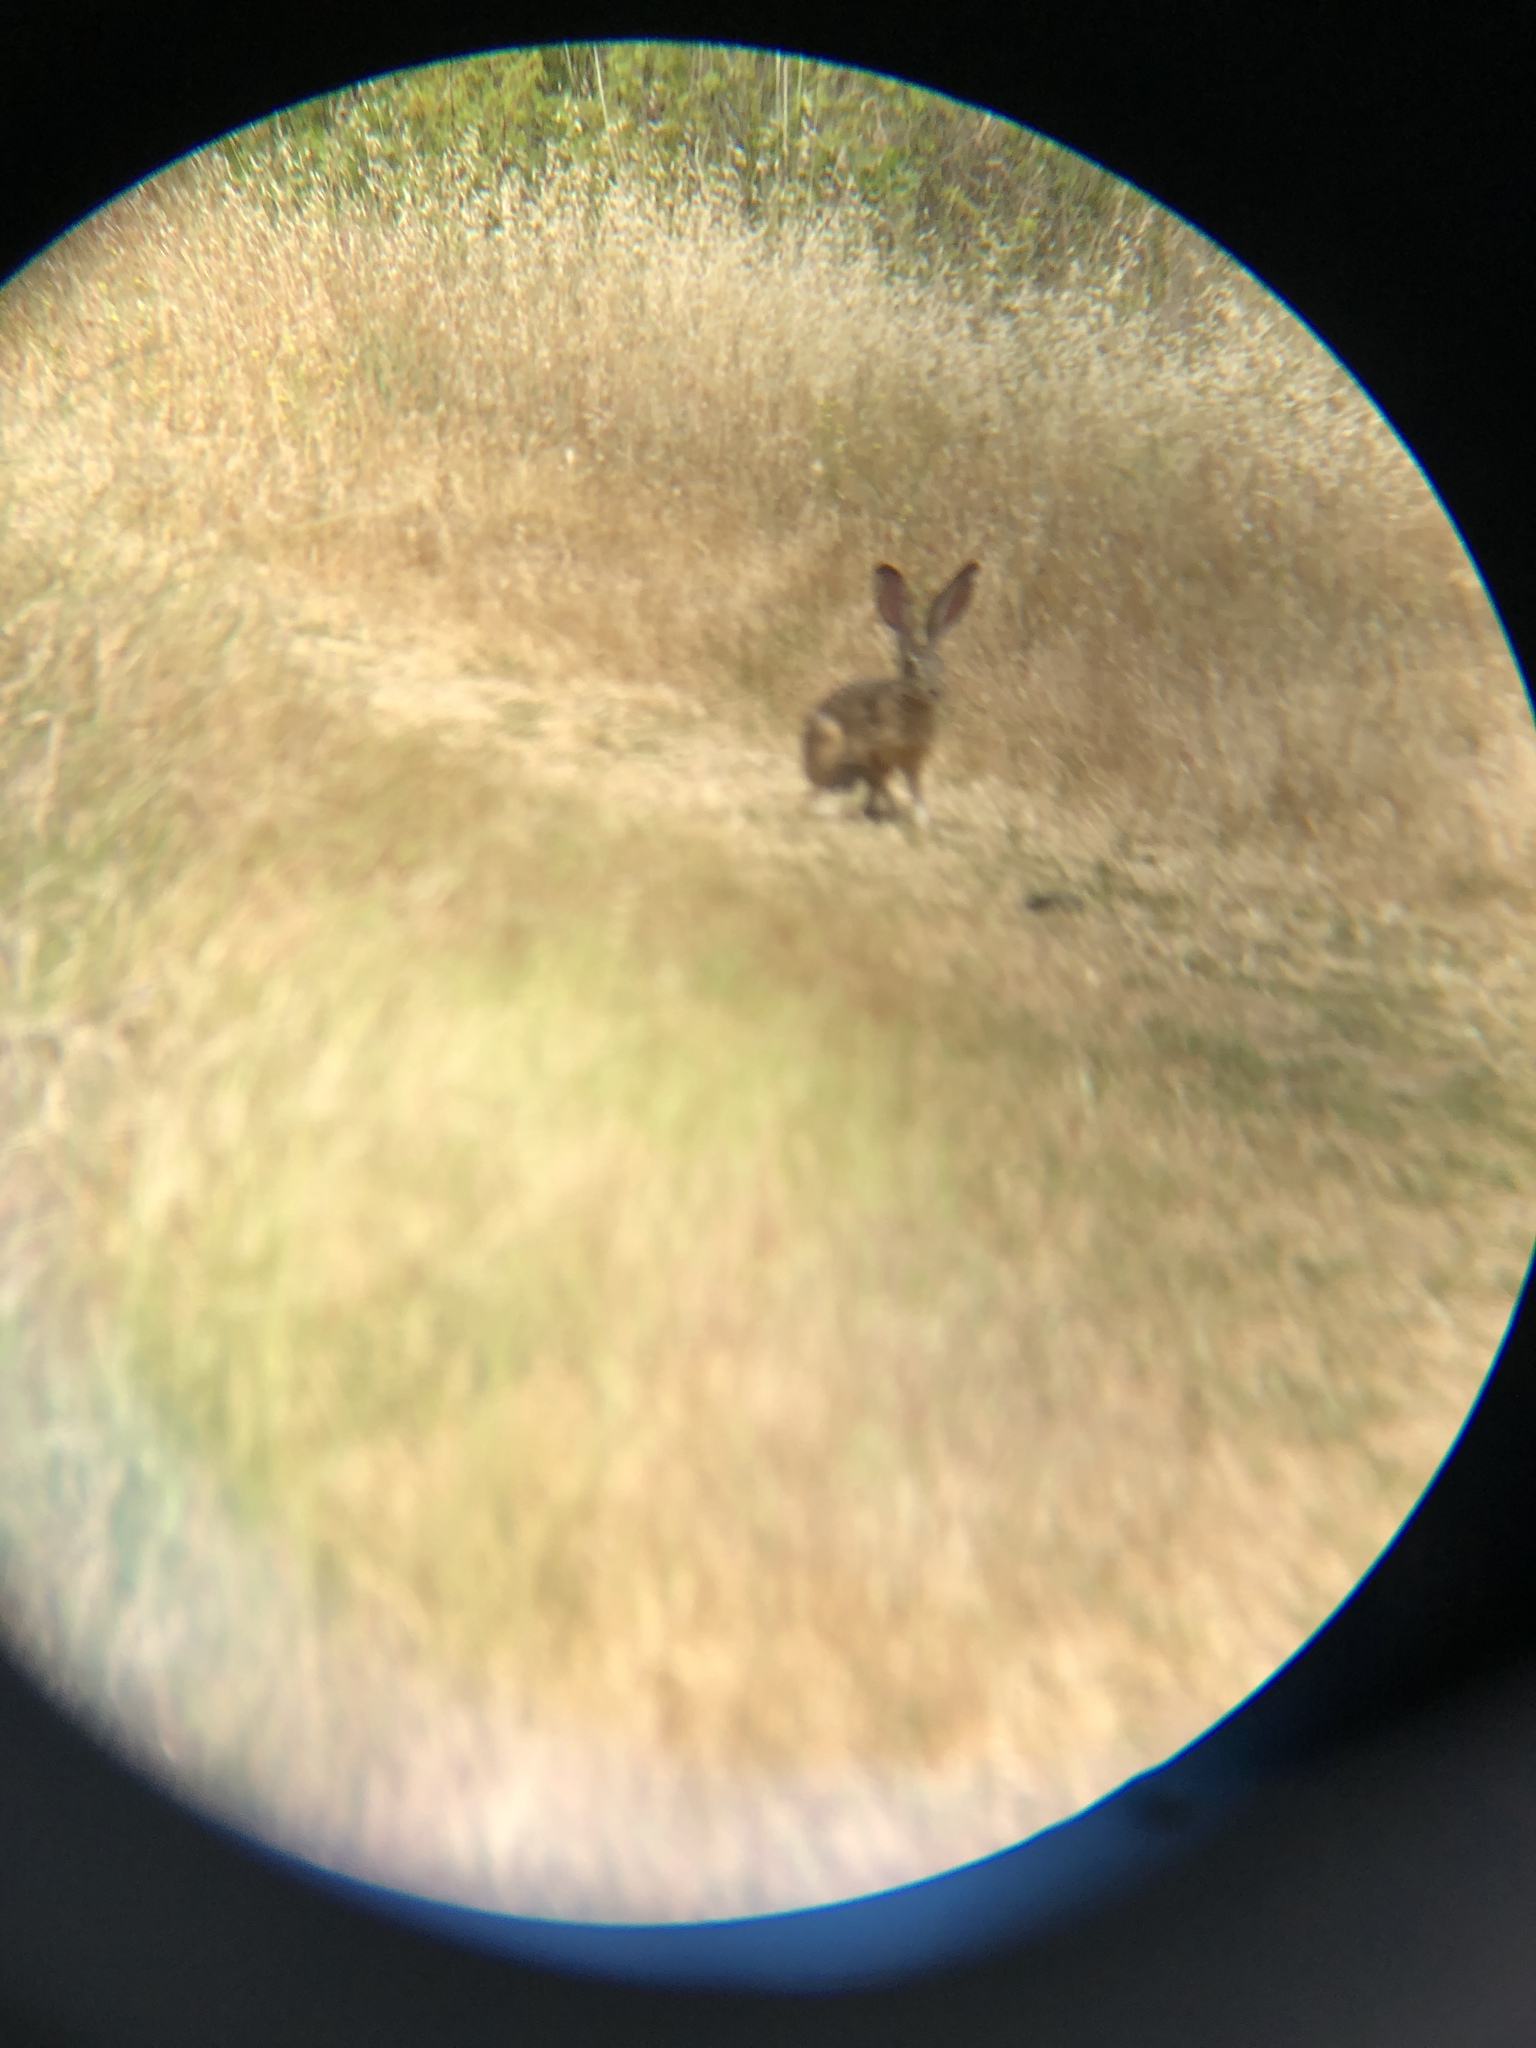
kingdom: Animalia
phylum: Chordata
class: Mammalia
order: Lagomorpha
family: Leporidae
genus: Lepus
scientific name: Lepus californicus
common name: Black-tailed jackrabbit
